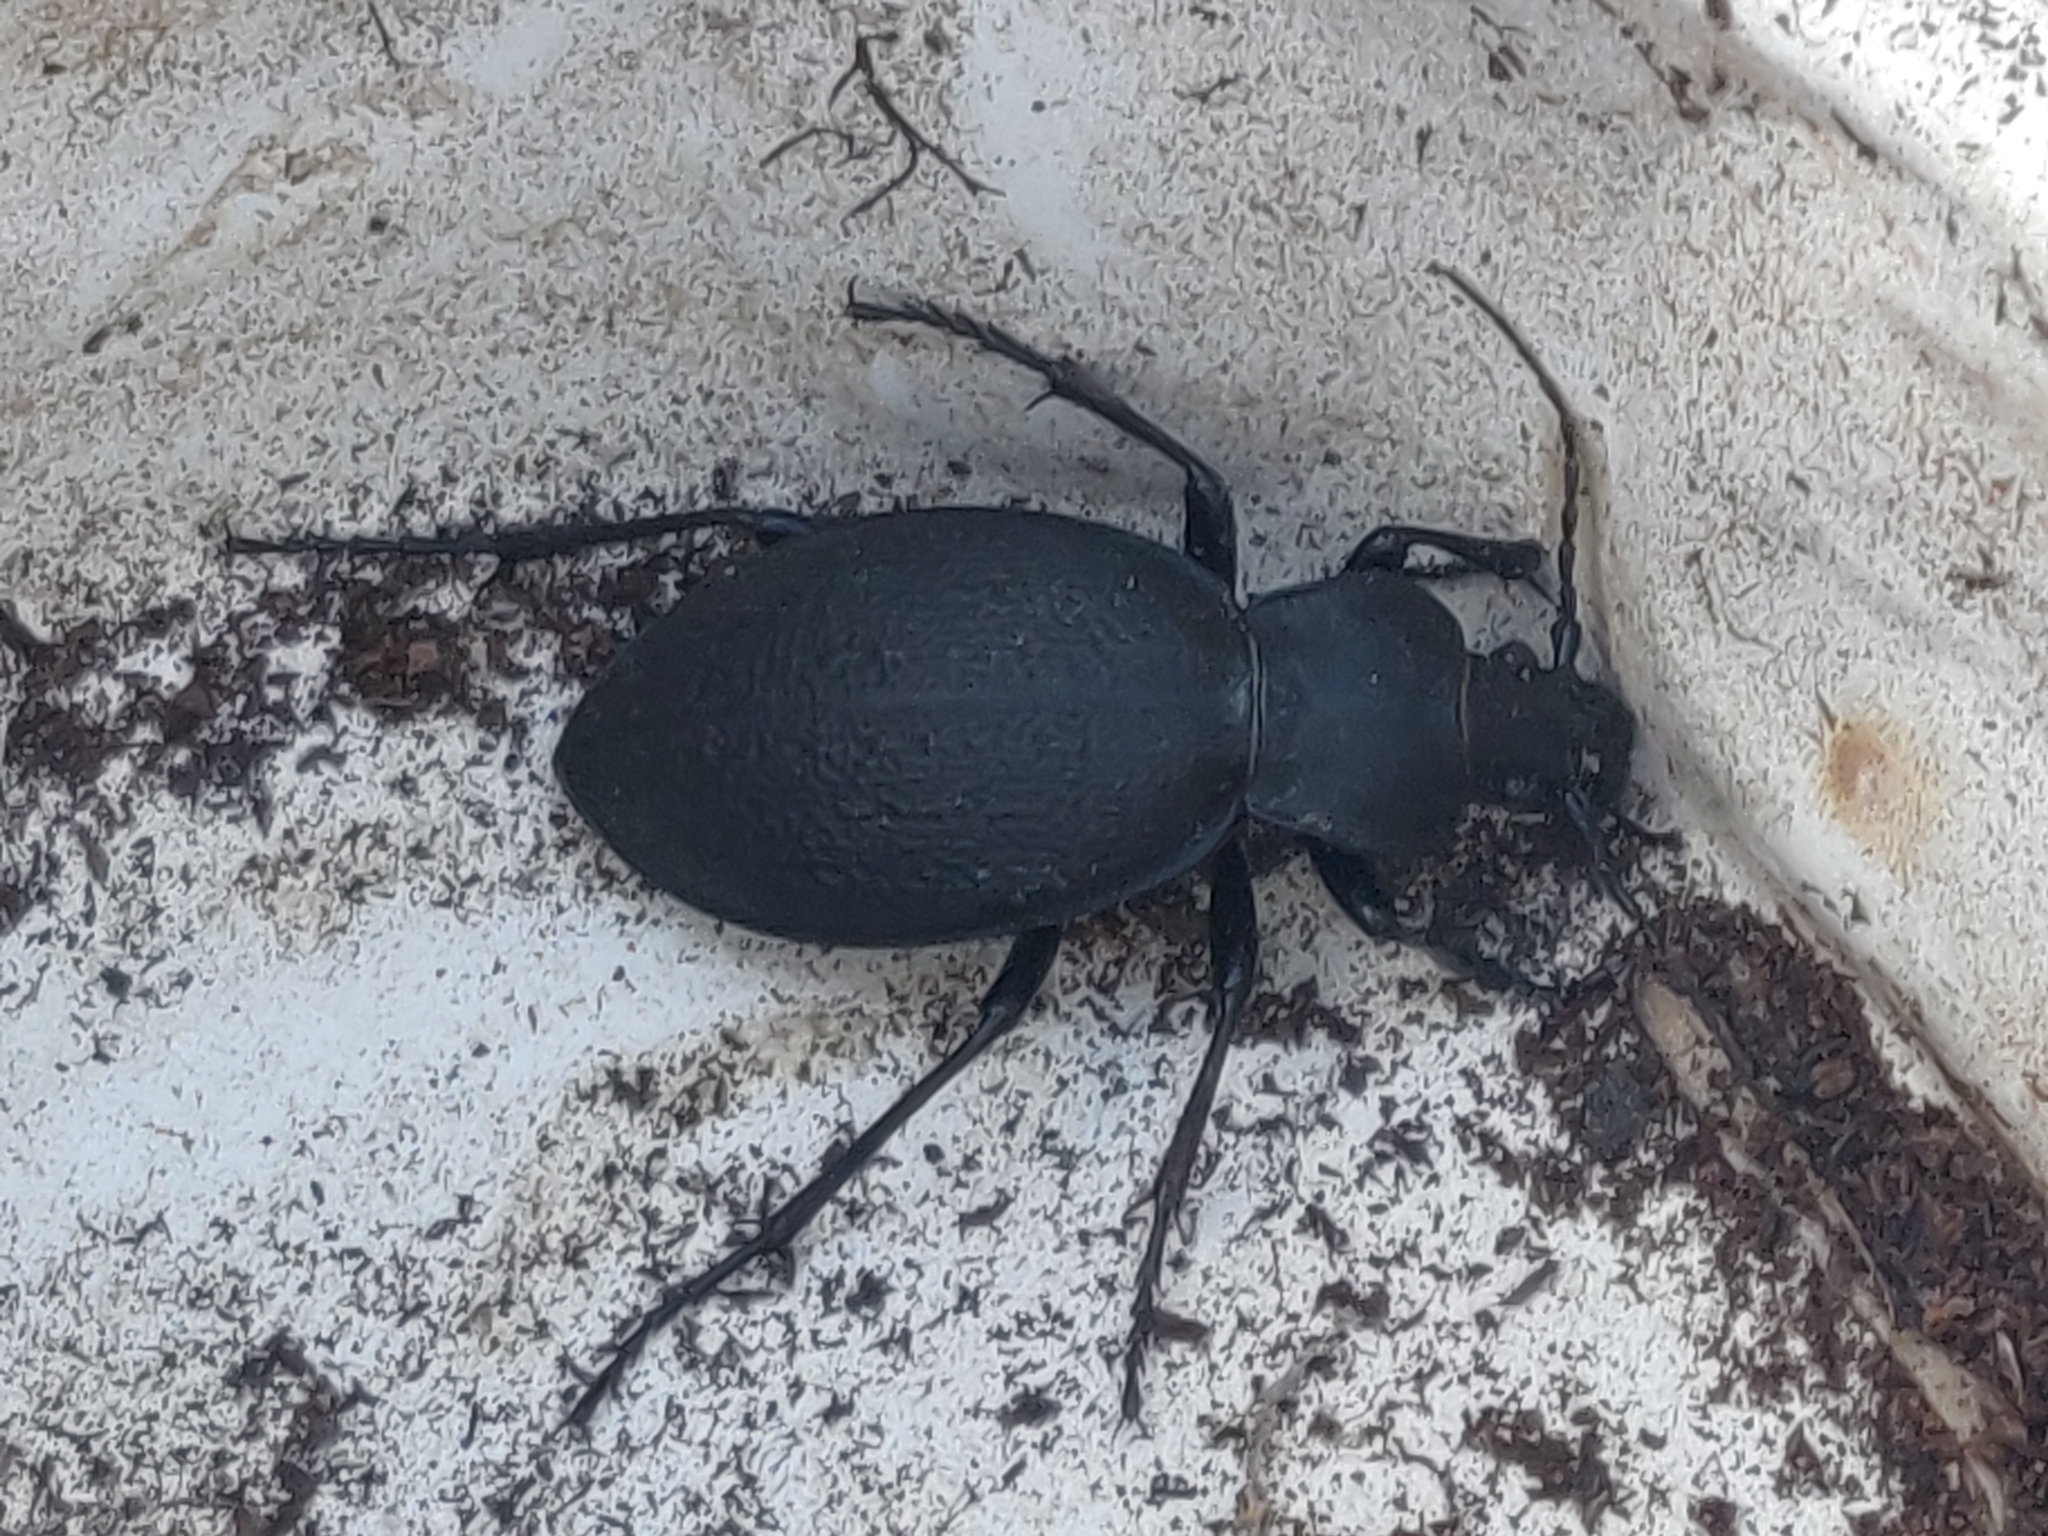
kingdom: Animalia
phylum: Arthropoda
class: Insecta
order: Coleoptera
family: Carabidae
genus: Carabus
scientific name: Carabus coriaceus
